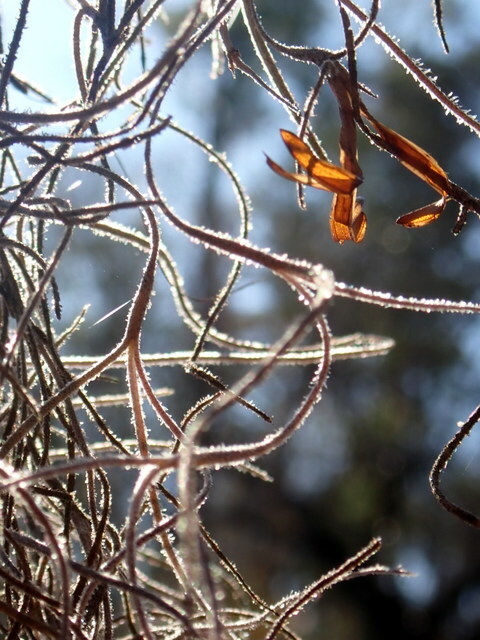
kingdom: Plantae
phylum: Tracheophyta
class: Liliopsida
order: Poales
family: Bromeliaceae
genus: Tillandsia
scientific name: Tillandsia usneoides
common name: Spanish moss
